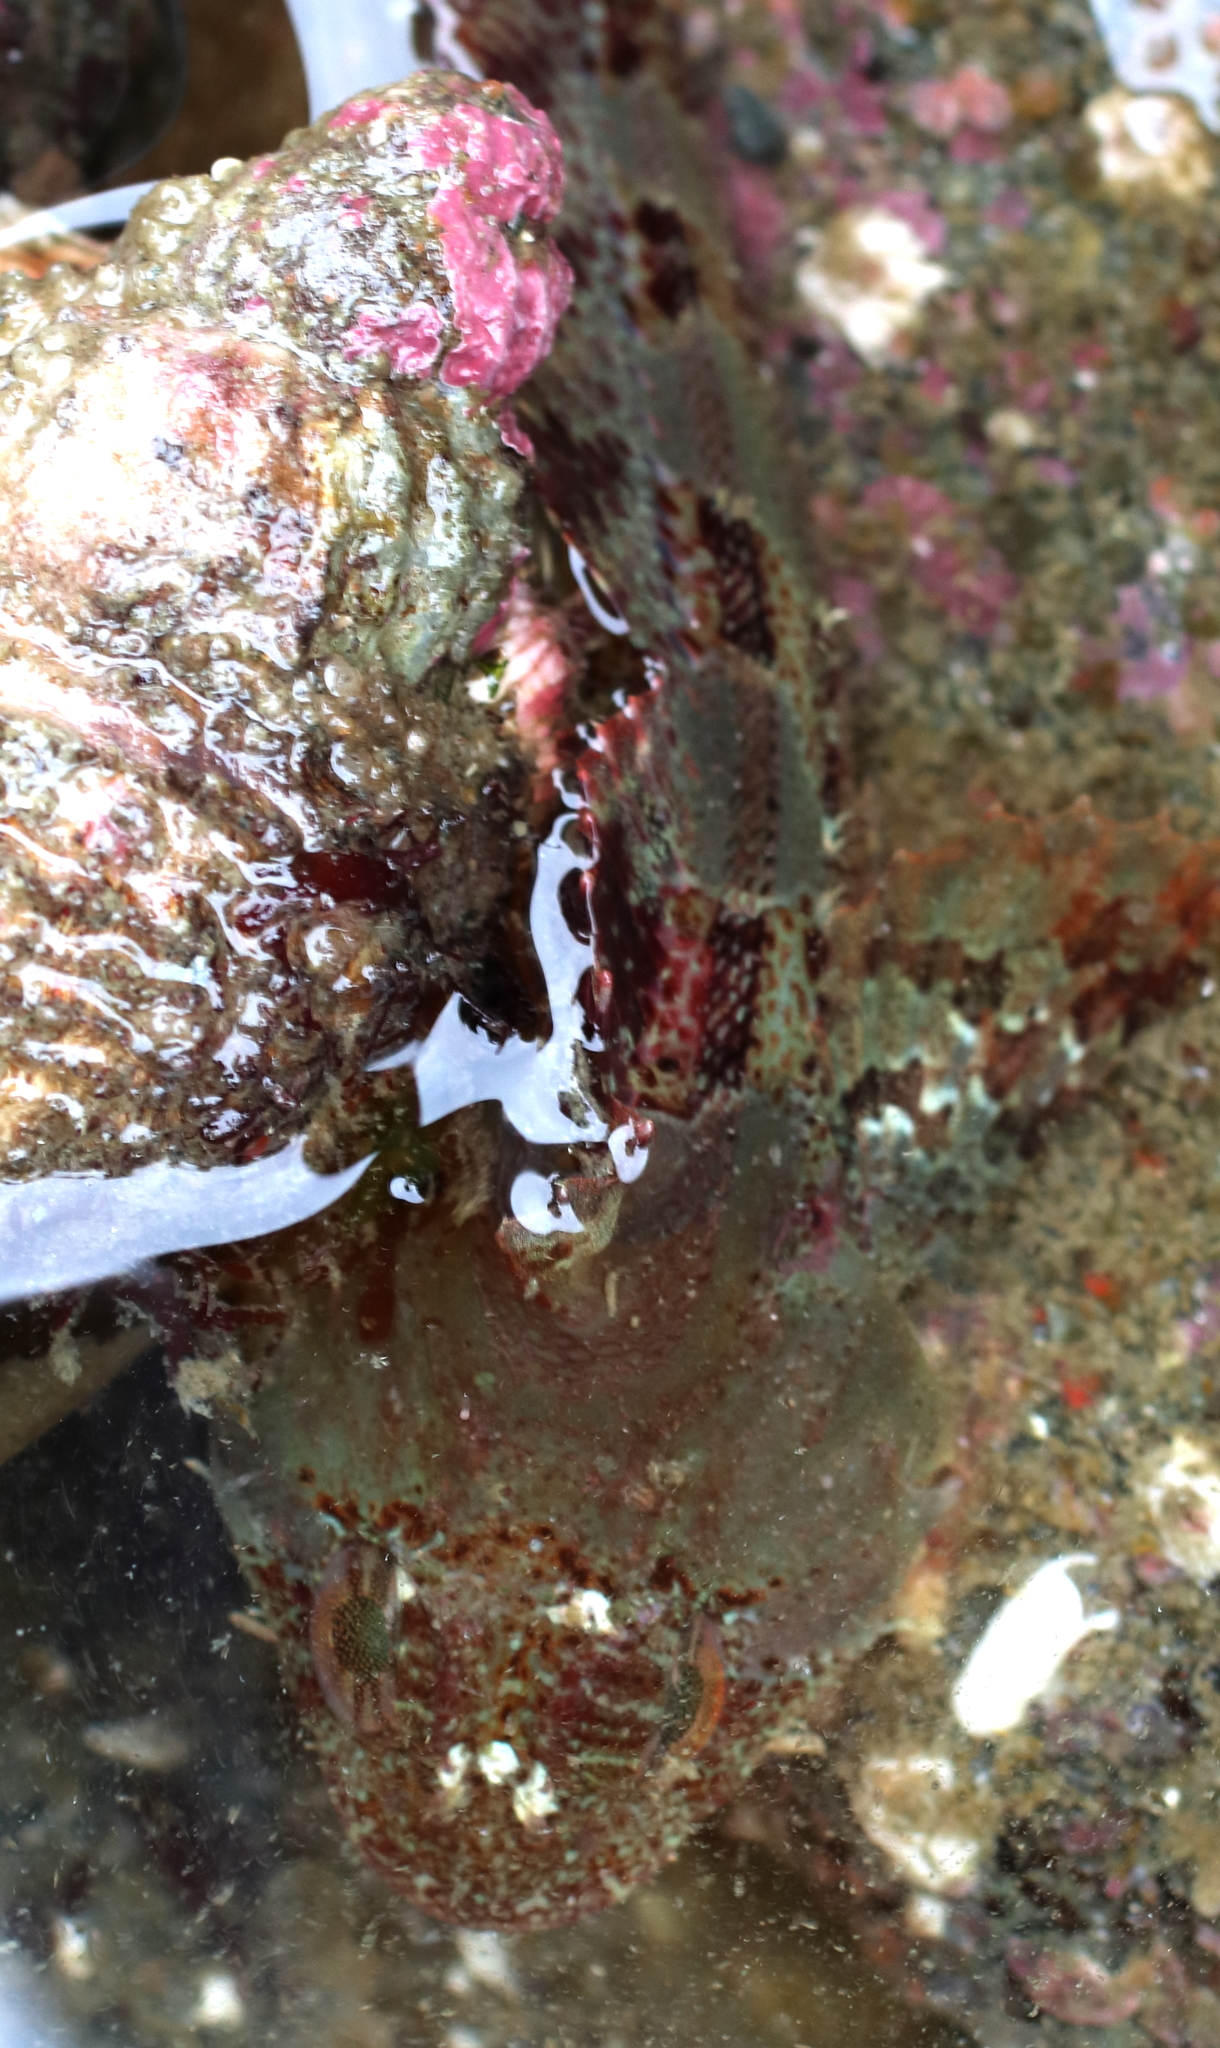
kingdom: Animalia
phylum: Chordata
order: Scorpaeniformes
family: Cottidae
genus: Hemilepidotus
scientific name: Hemilepidotus hemilepidotus
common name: Red irish lord
